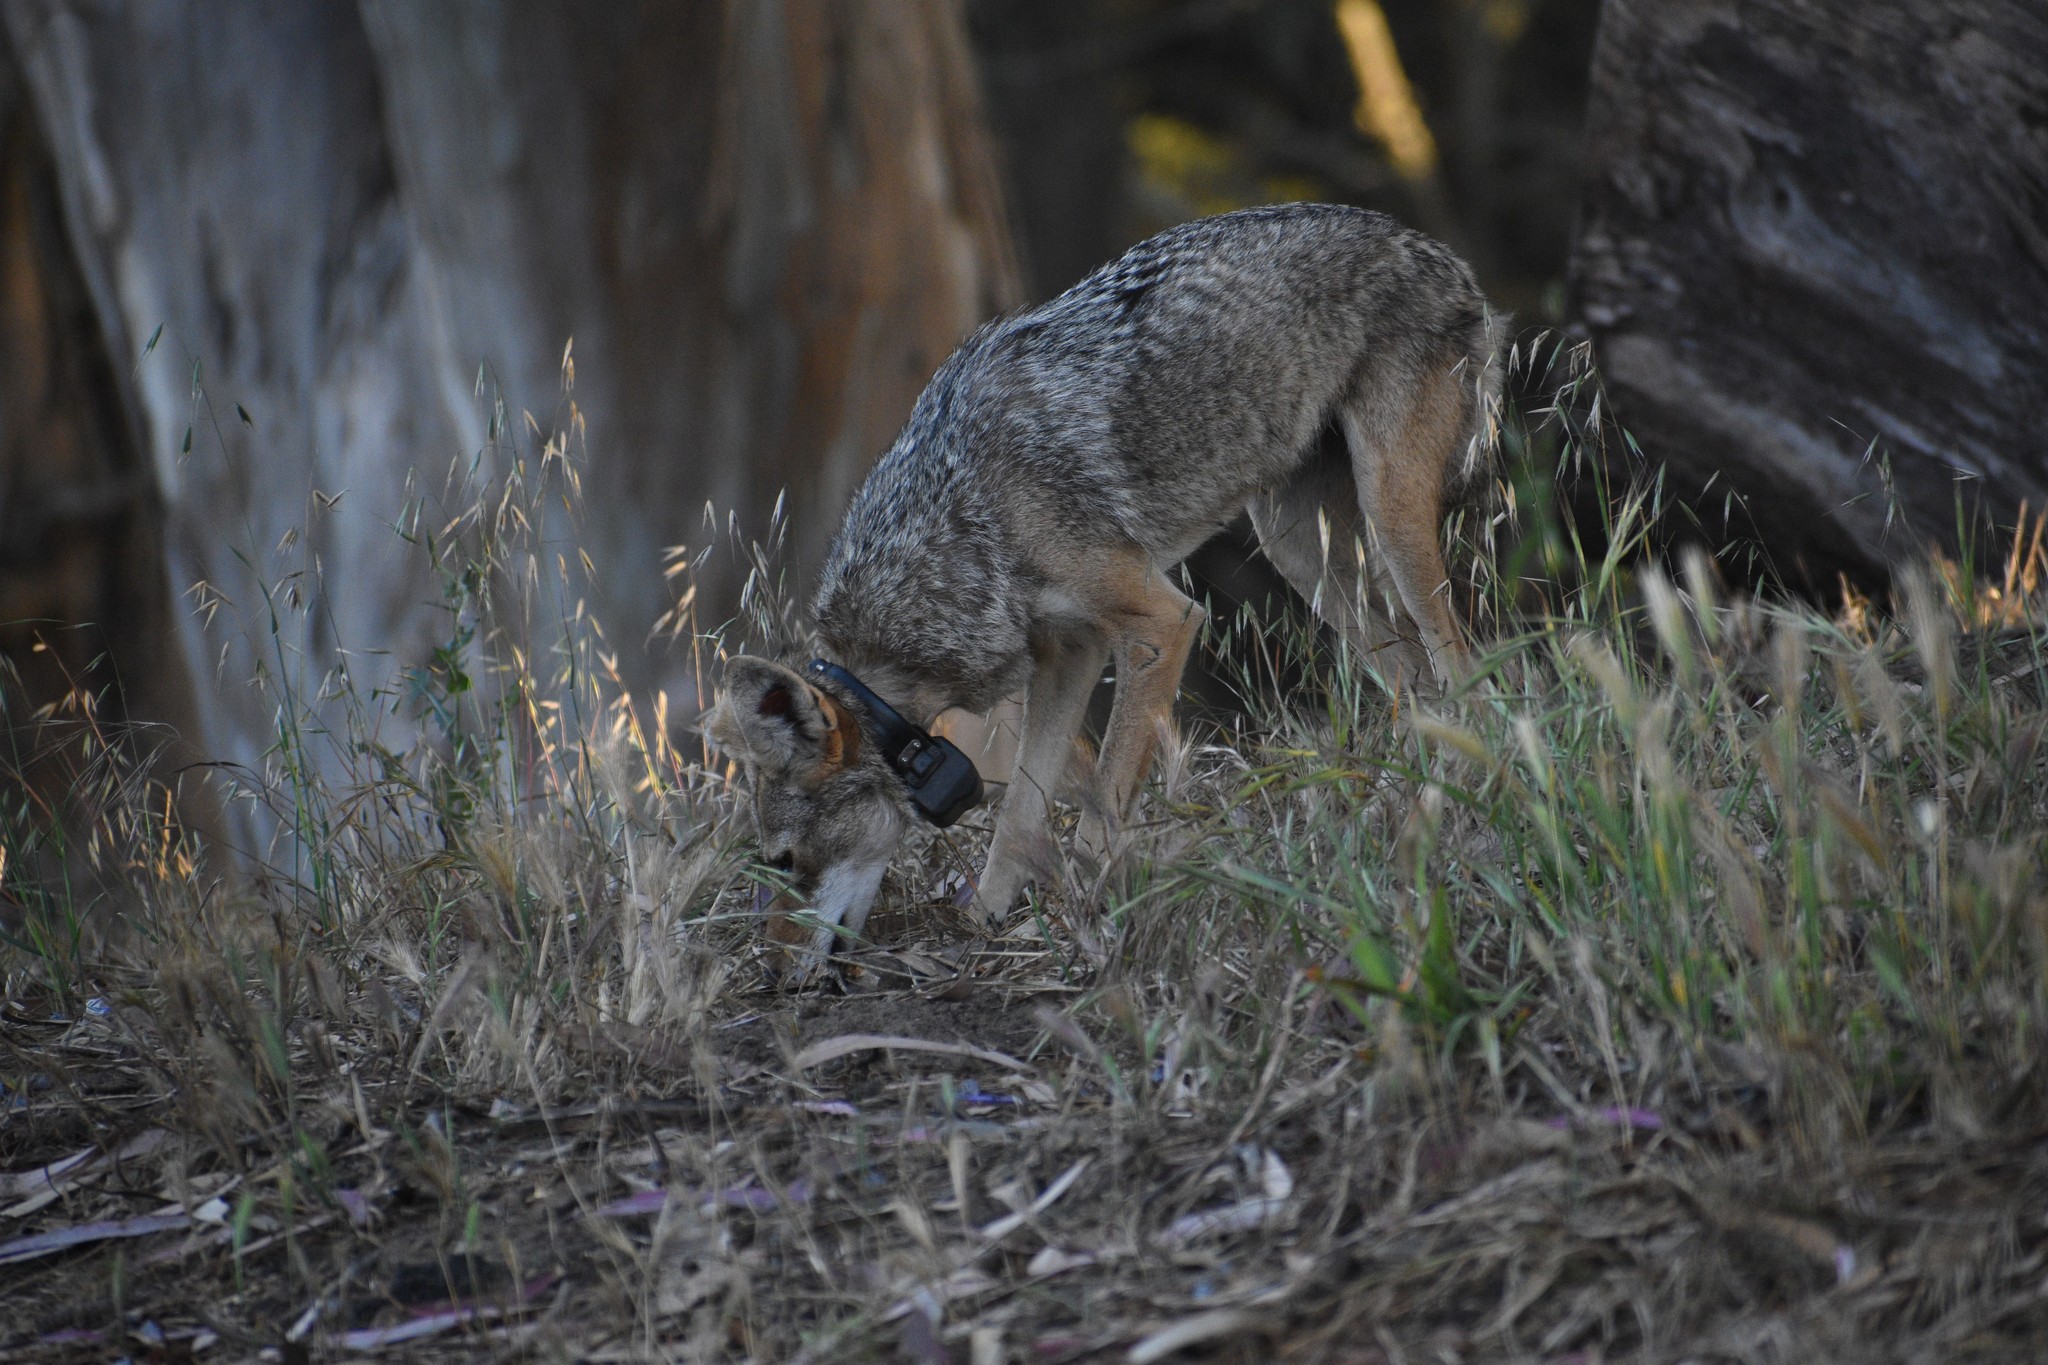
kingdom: Animalia
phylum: Chordata
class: Mammalia
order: Carnivora
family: Canidae
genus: Canis
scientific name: Canis latrans
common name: Coyote
